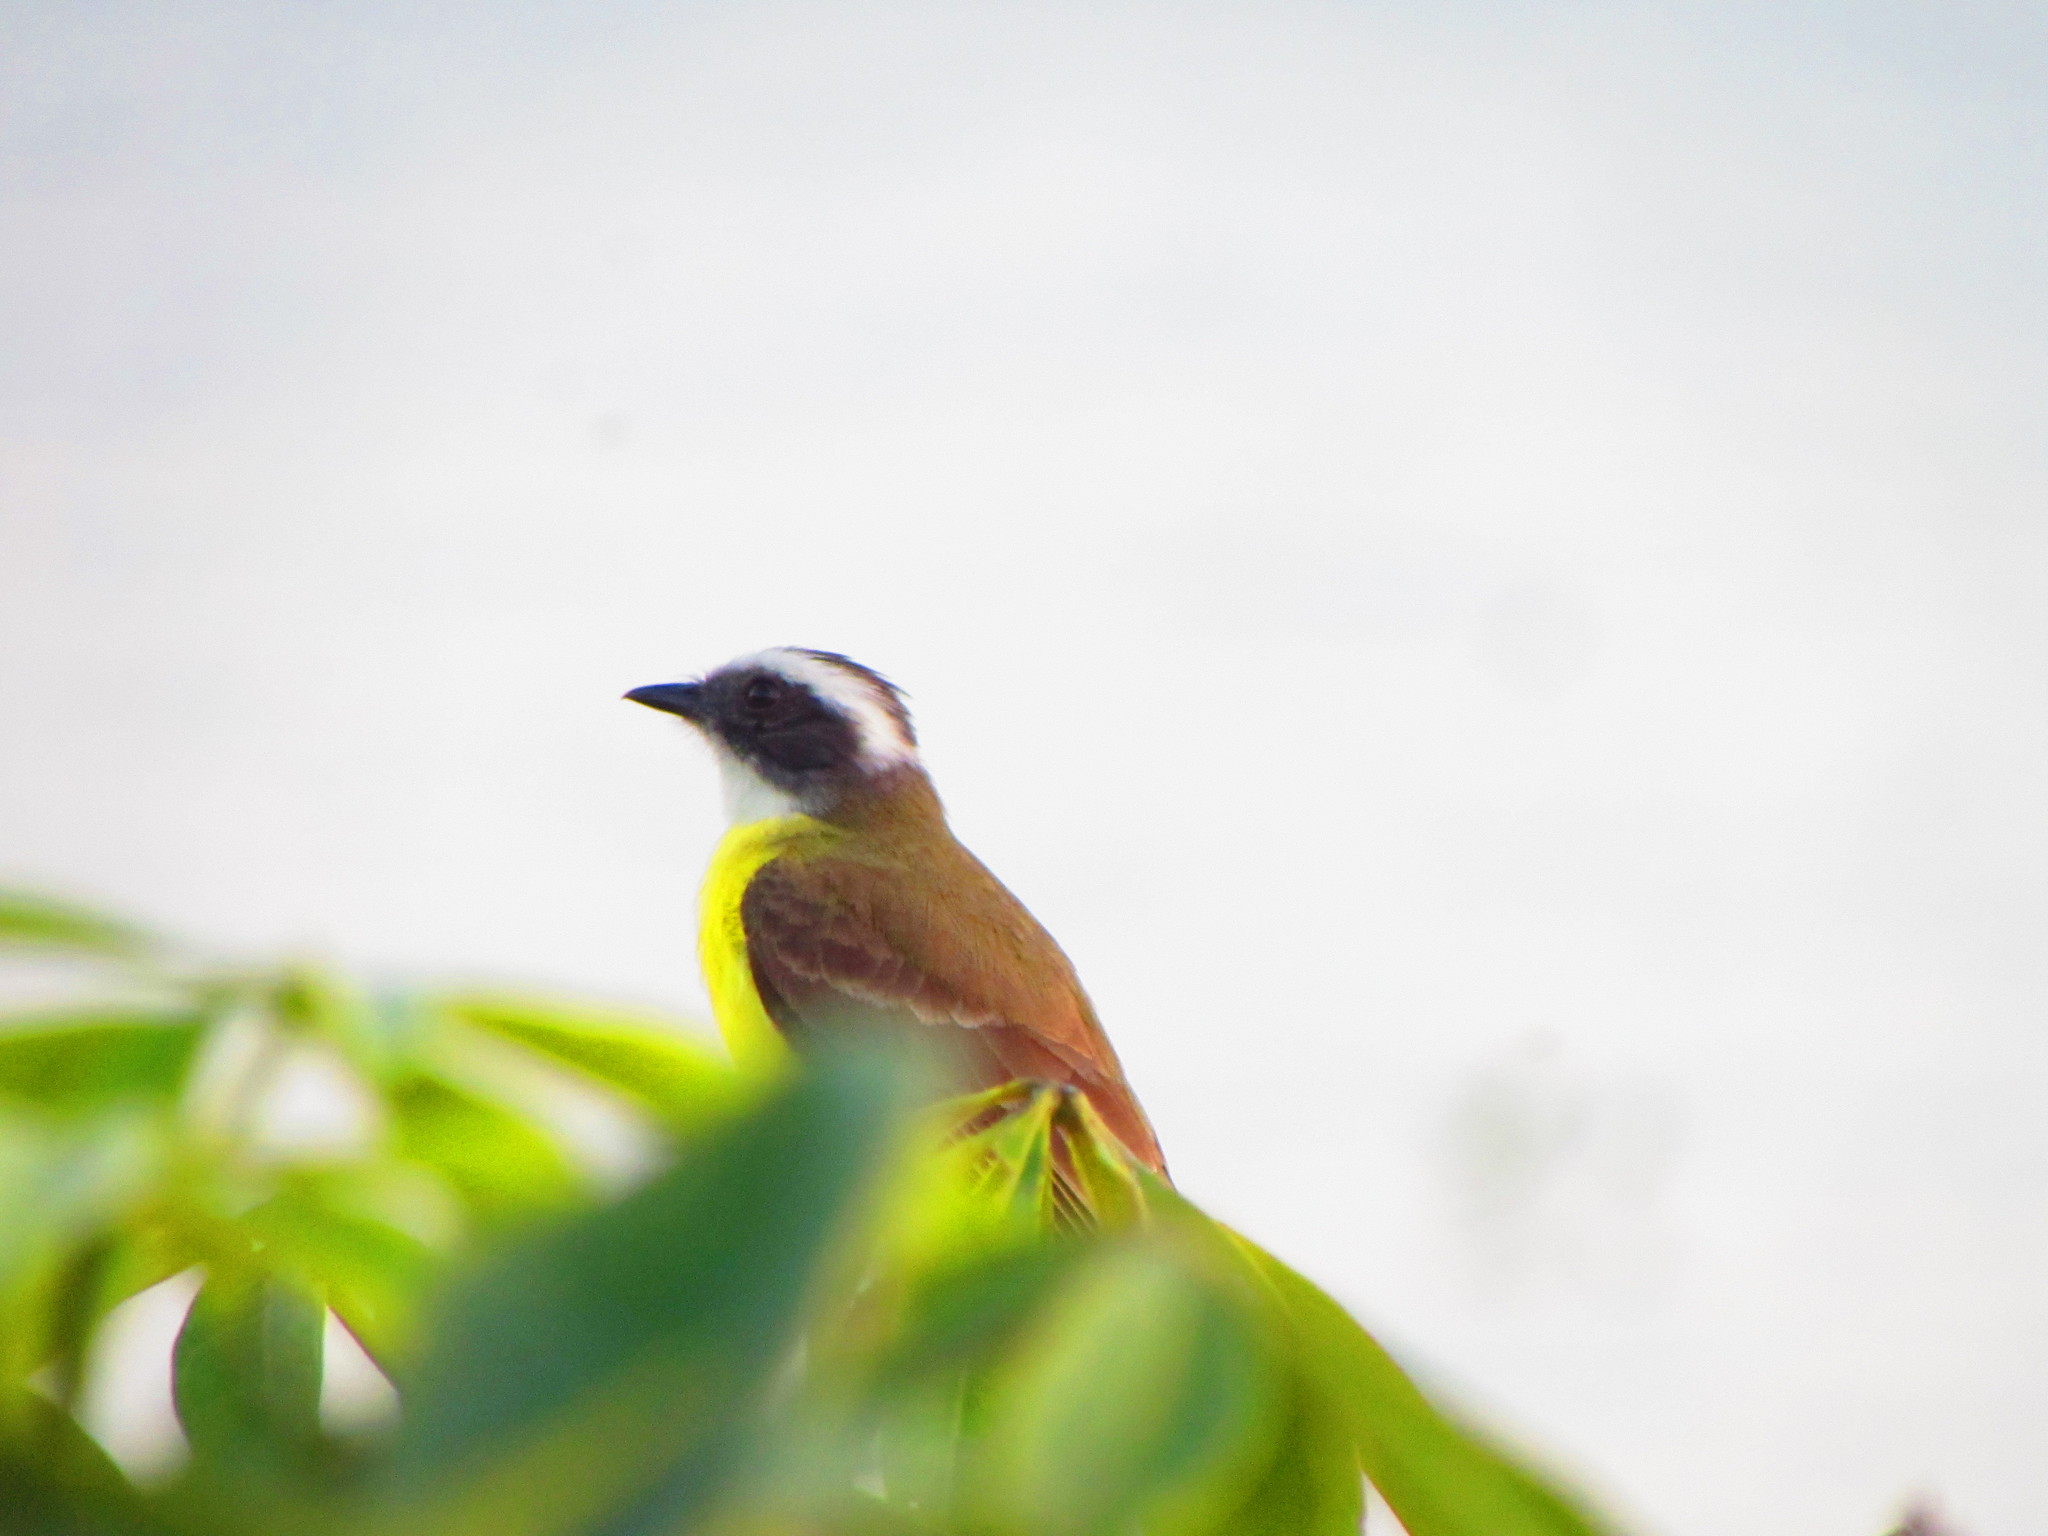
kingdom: Animalia
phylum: Chordata
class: Aves
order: Passeriformes
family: Tyrannidae
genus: Myiozetetes
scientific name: Myiozetetes similis
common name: Social flycatcher
